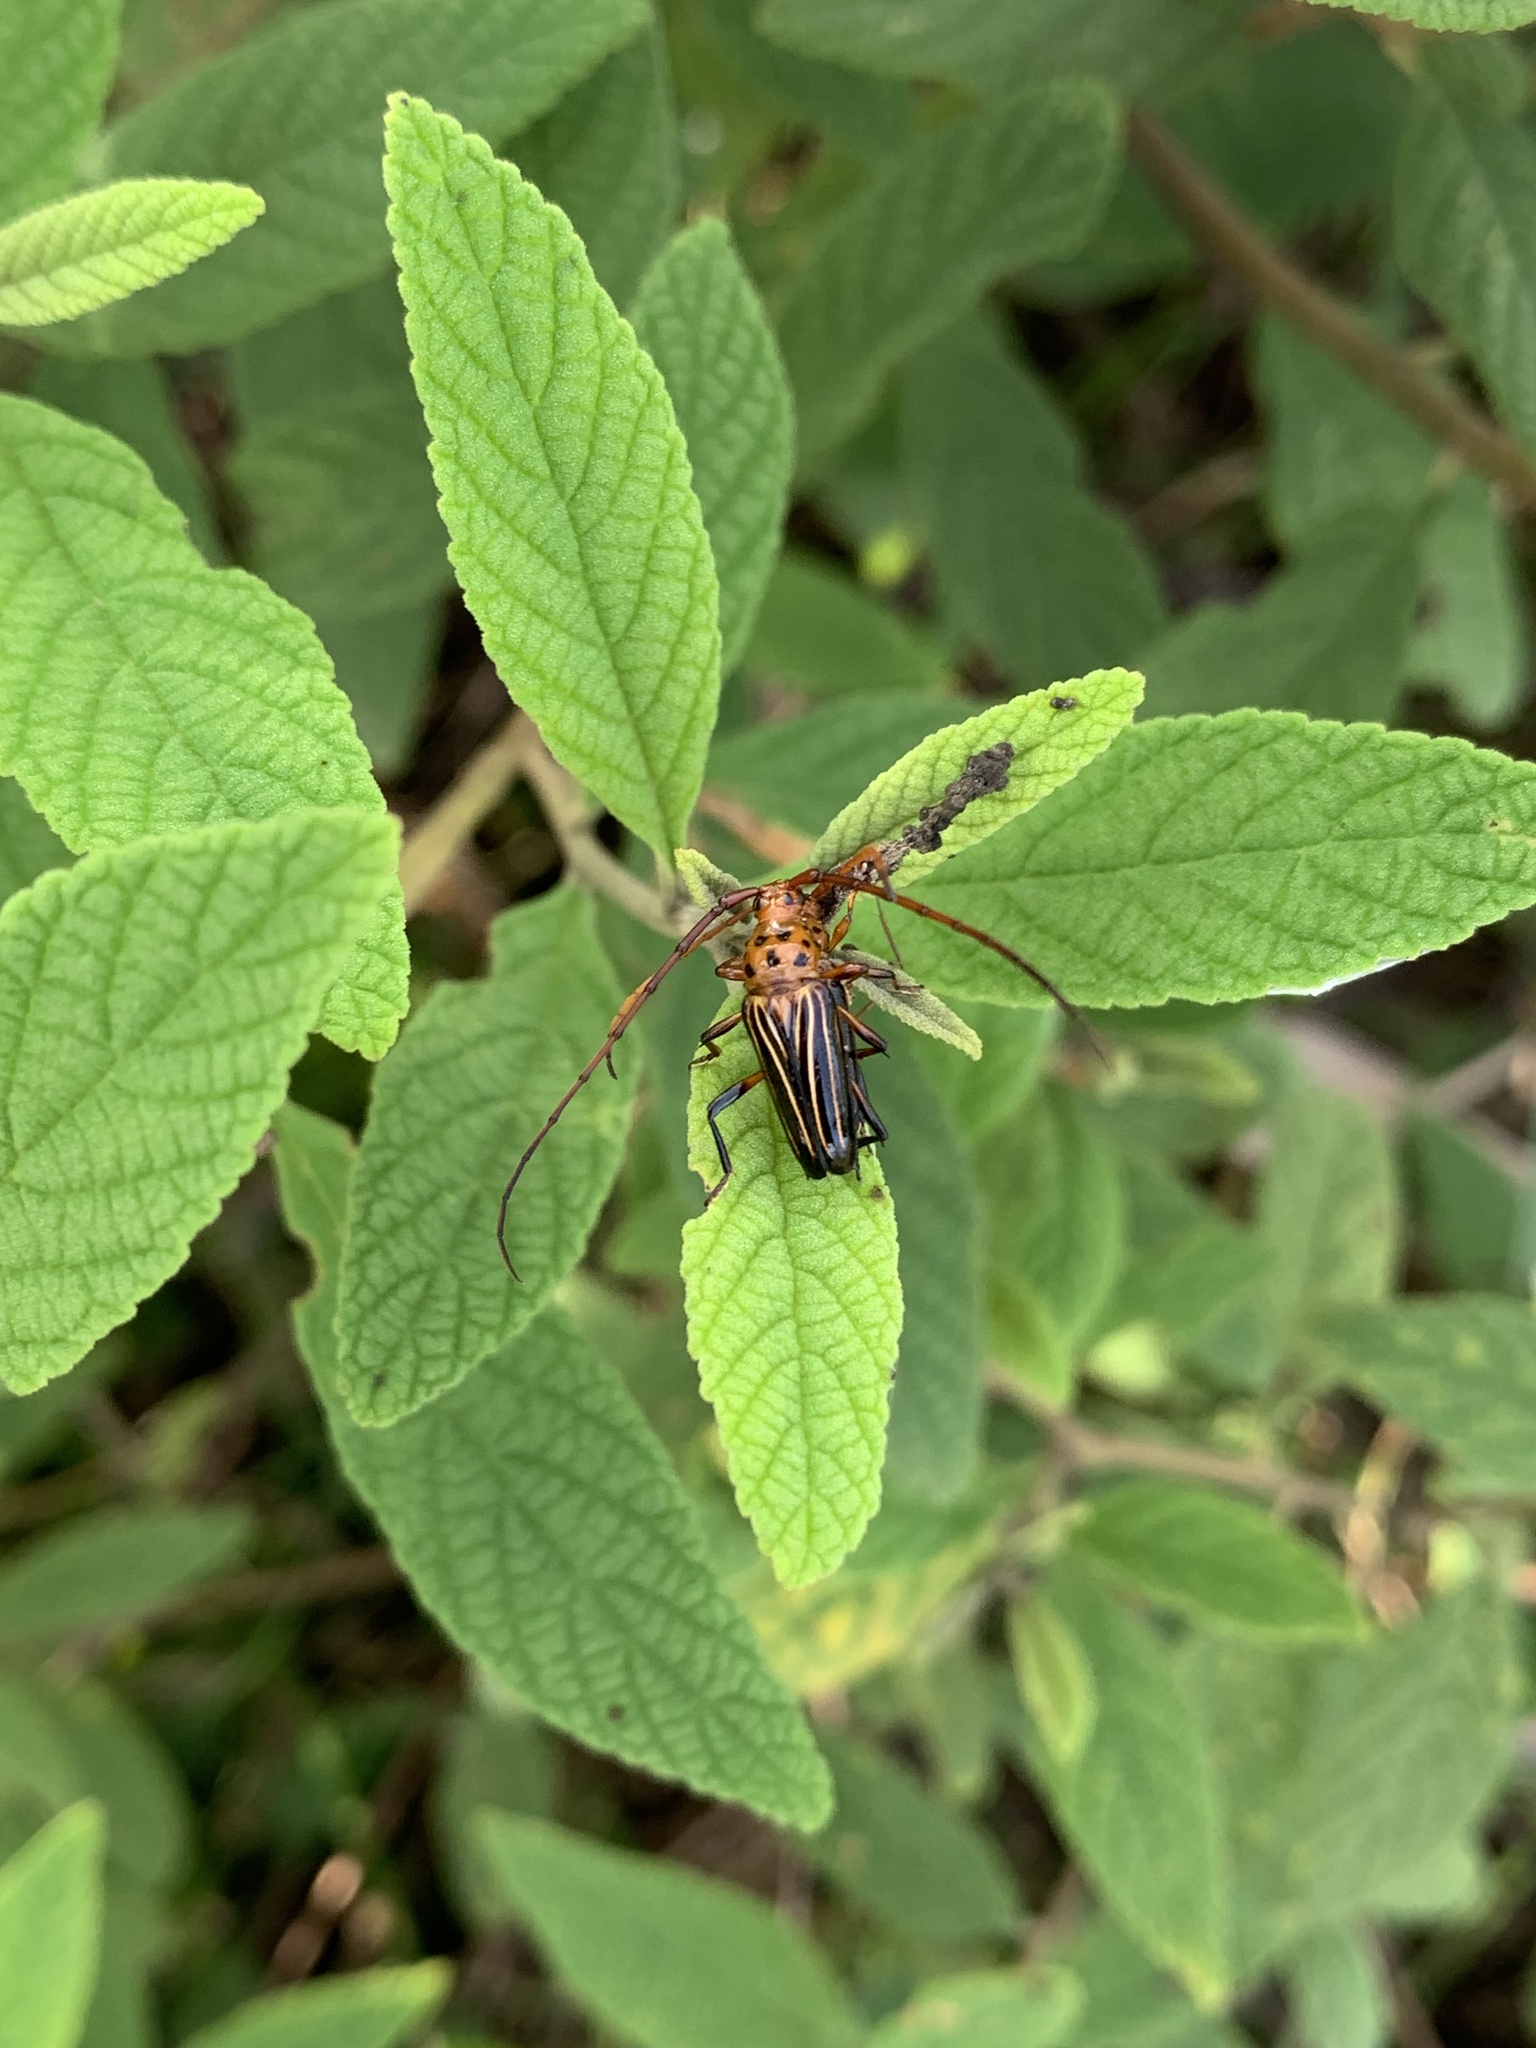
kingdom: Animalia
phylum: Arthropoda
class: Insecta
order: Coleoptera
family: Cerambycidae
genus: Oxymerus
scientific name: Oxymerus aculeatus
